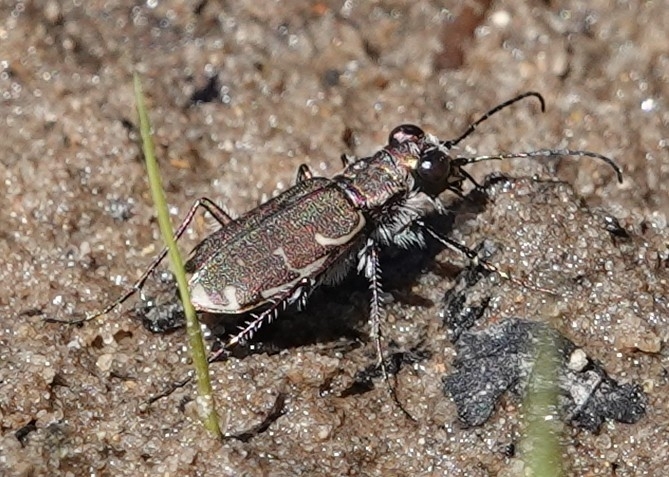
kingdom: Animalia
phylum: Arthropoda
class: Insecta
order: Coleoptera
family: Carabidae
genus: Cicindela
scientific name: Cicindela repanda
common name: Bronzed tiger beetle
